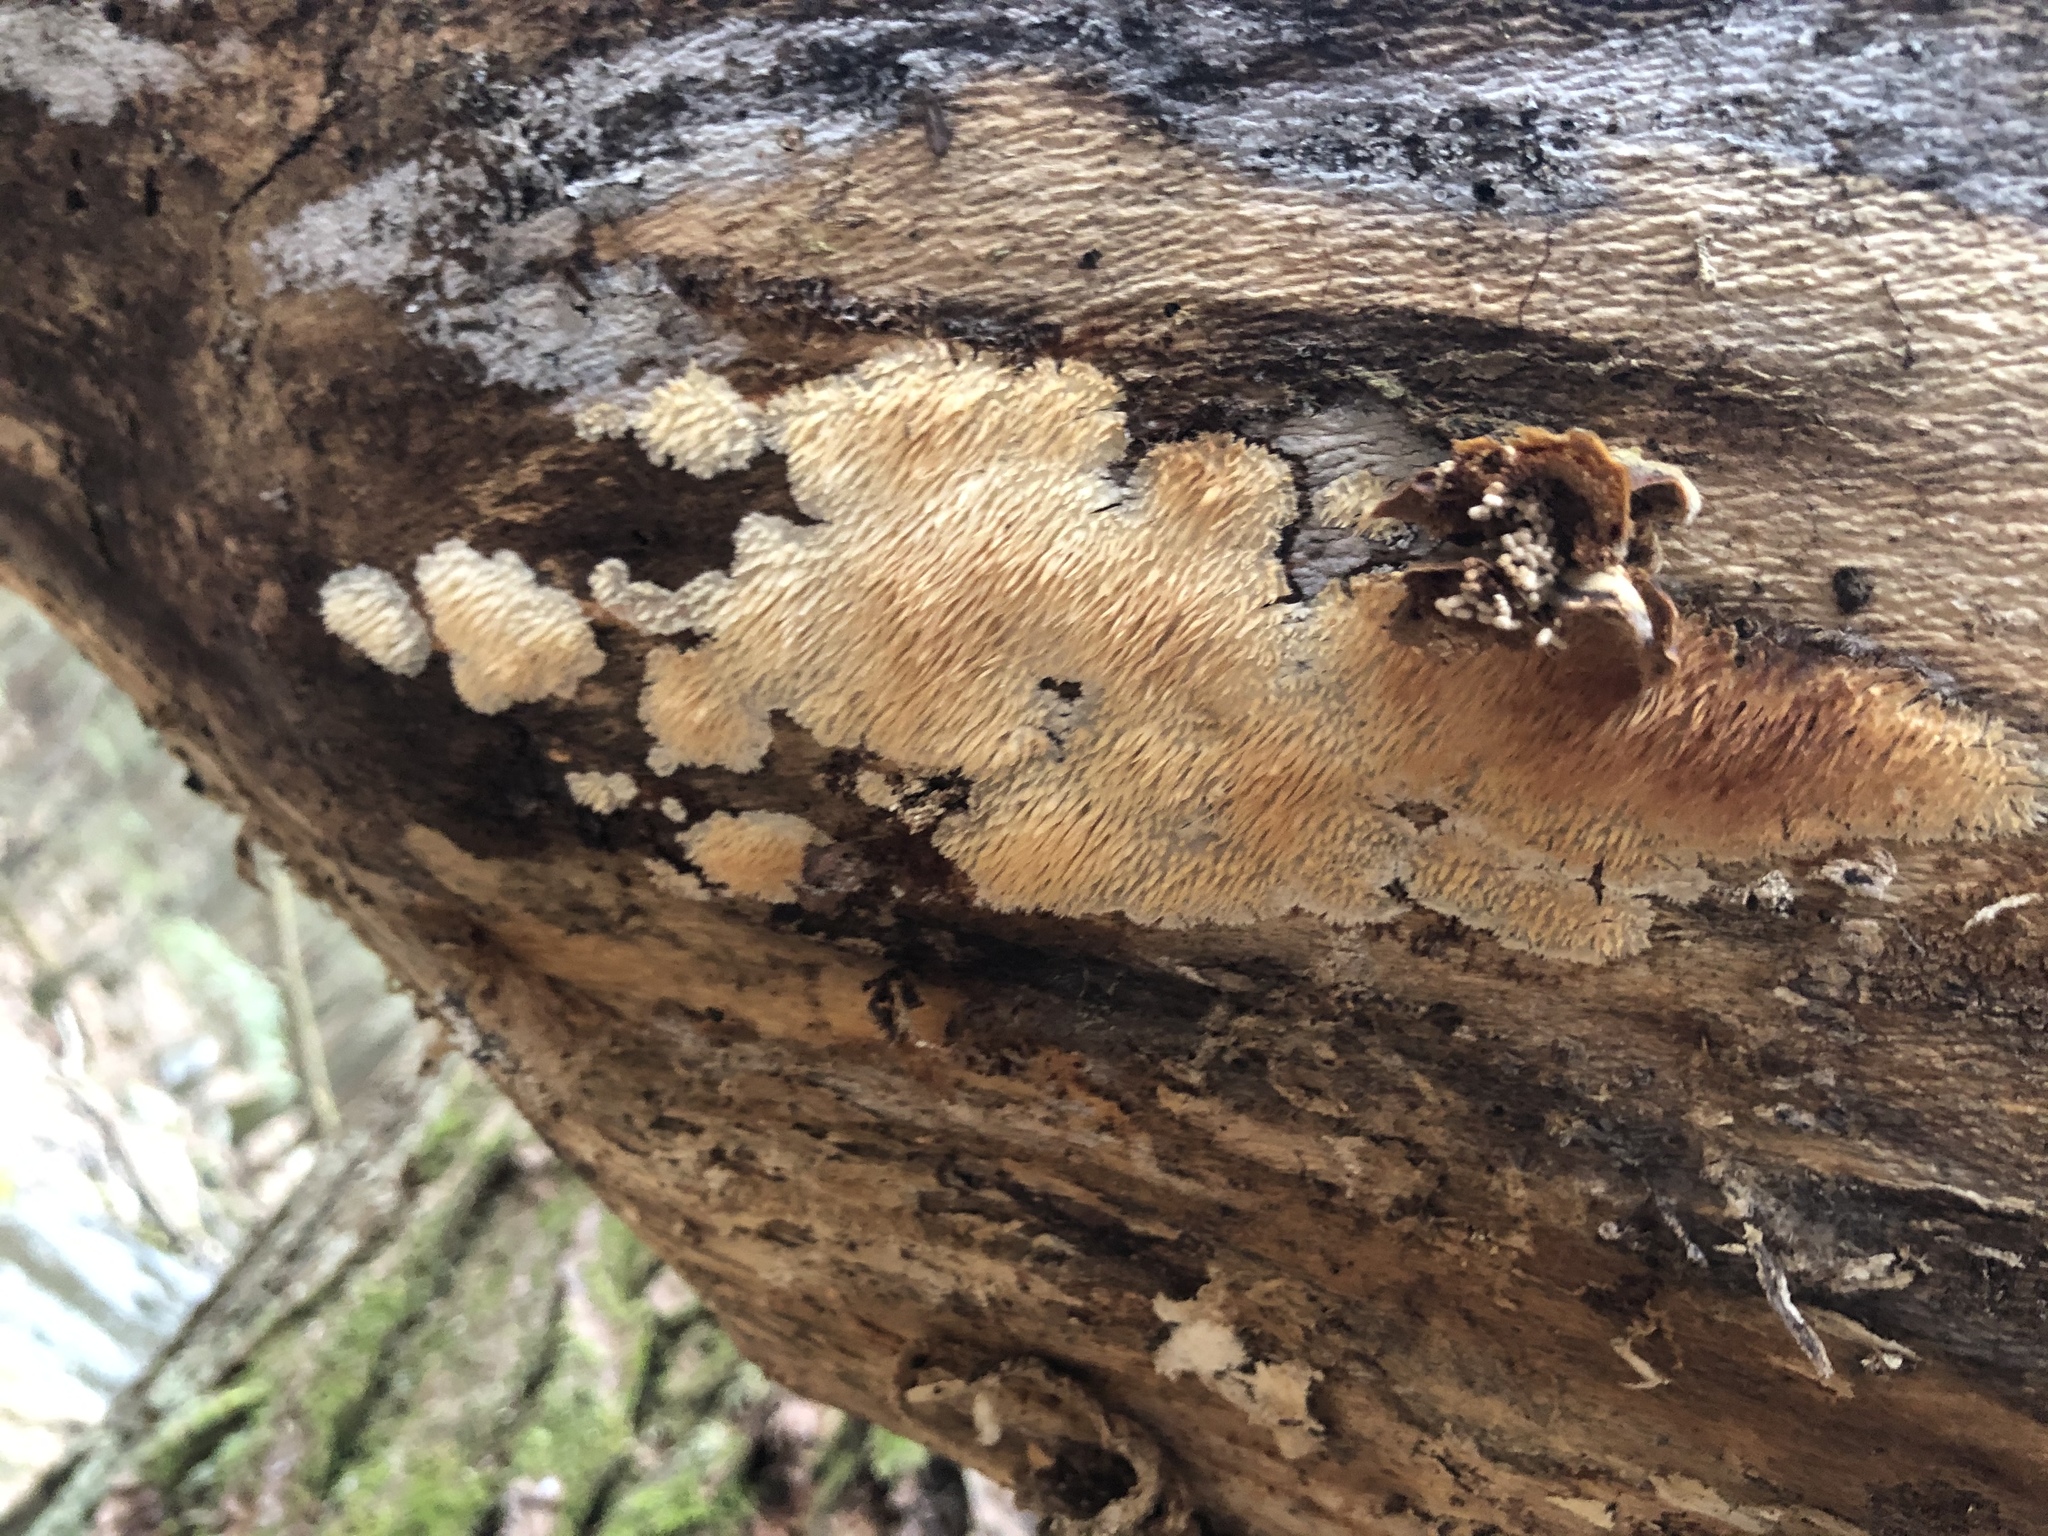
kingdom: Fungi
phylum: Basidiomycota
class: Agaricomycetes
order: Agaricales
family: Radulomycetaceae
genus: Radulomyces
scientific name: Radulomyces copelandii
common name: Asian beauty
